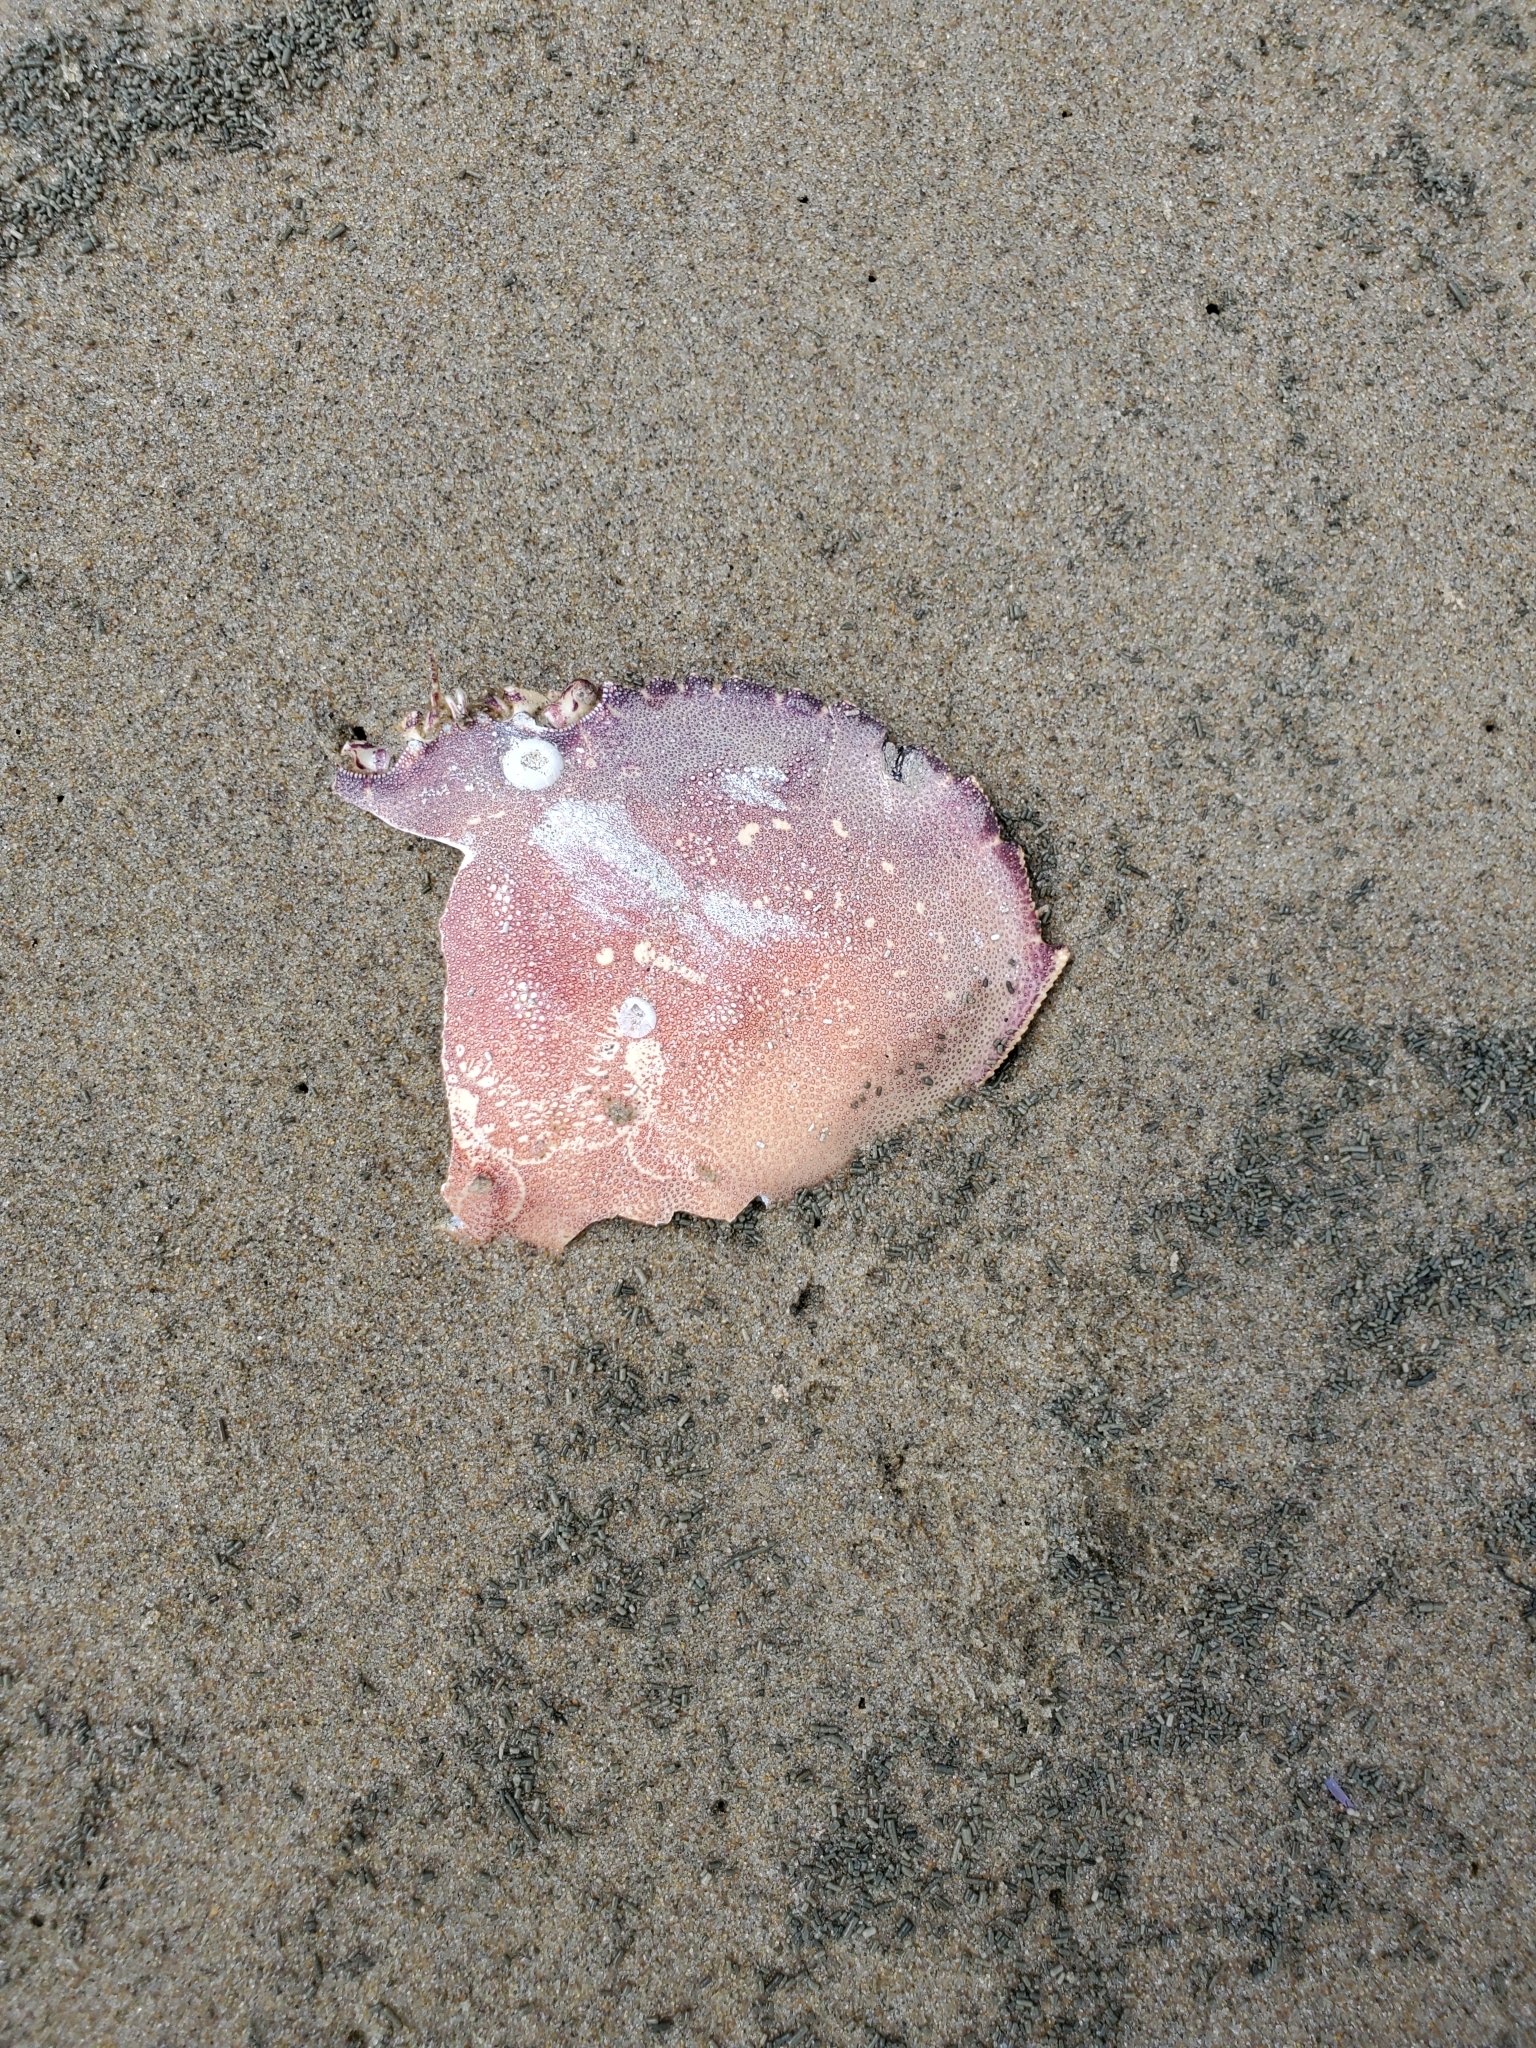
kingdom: Animalia
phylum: Arthropoda
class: Malacostraca
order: Decapoda
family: Cancridae
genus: Metacarcinus
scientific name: Metacarcinus magister
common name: Californian crab
